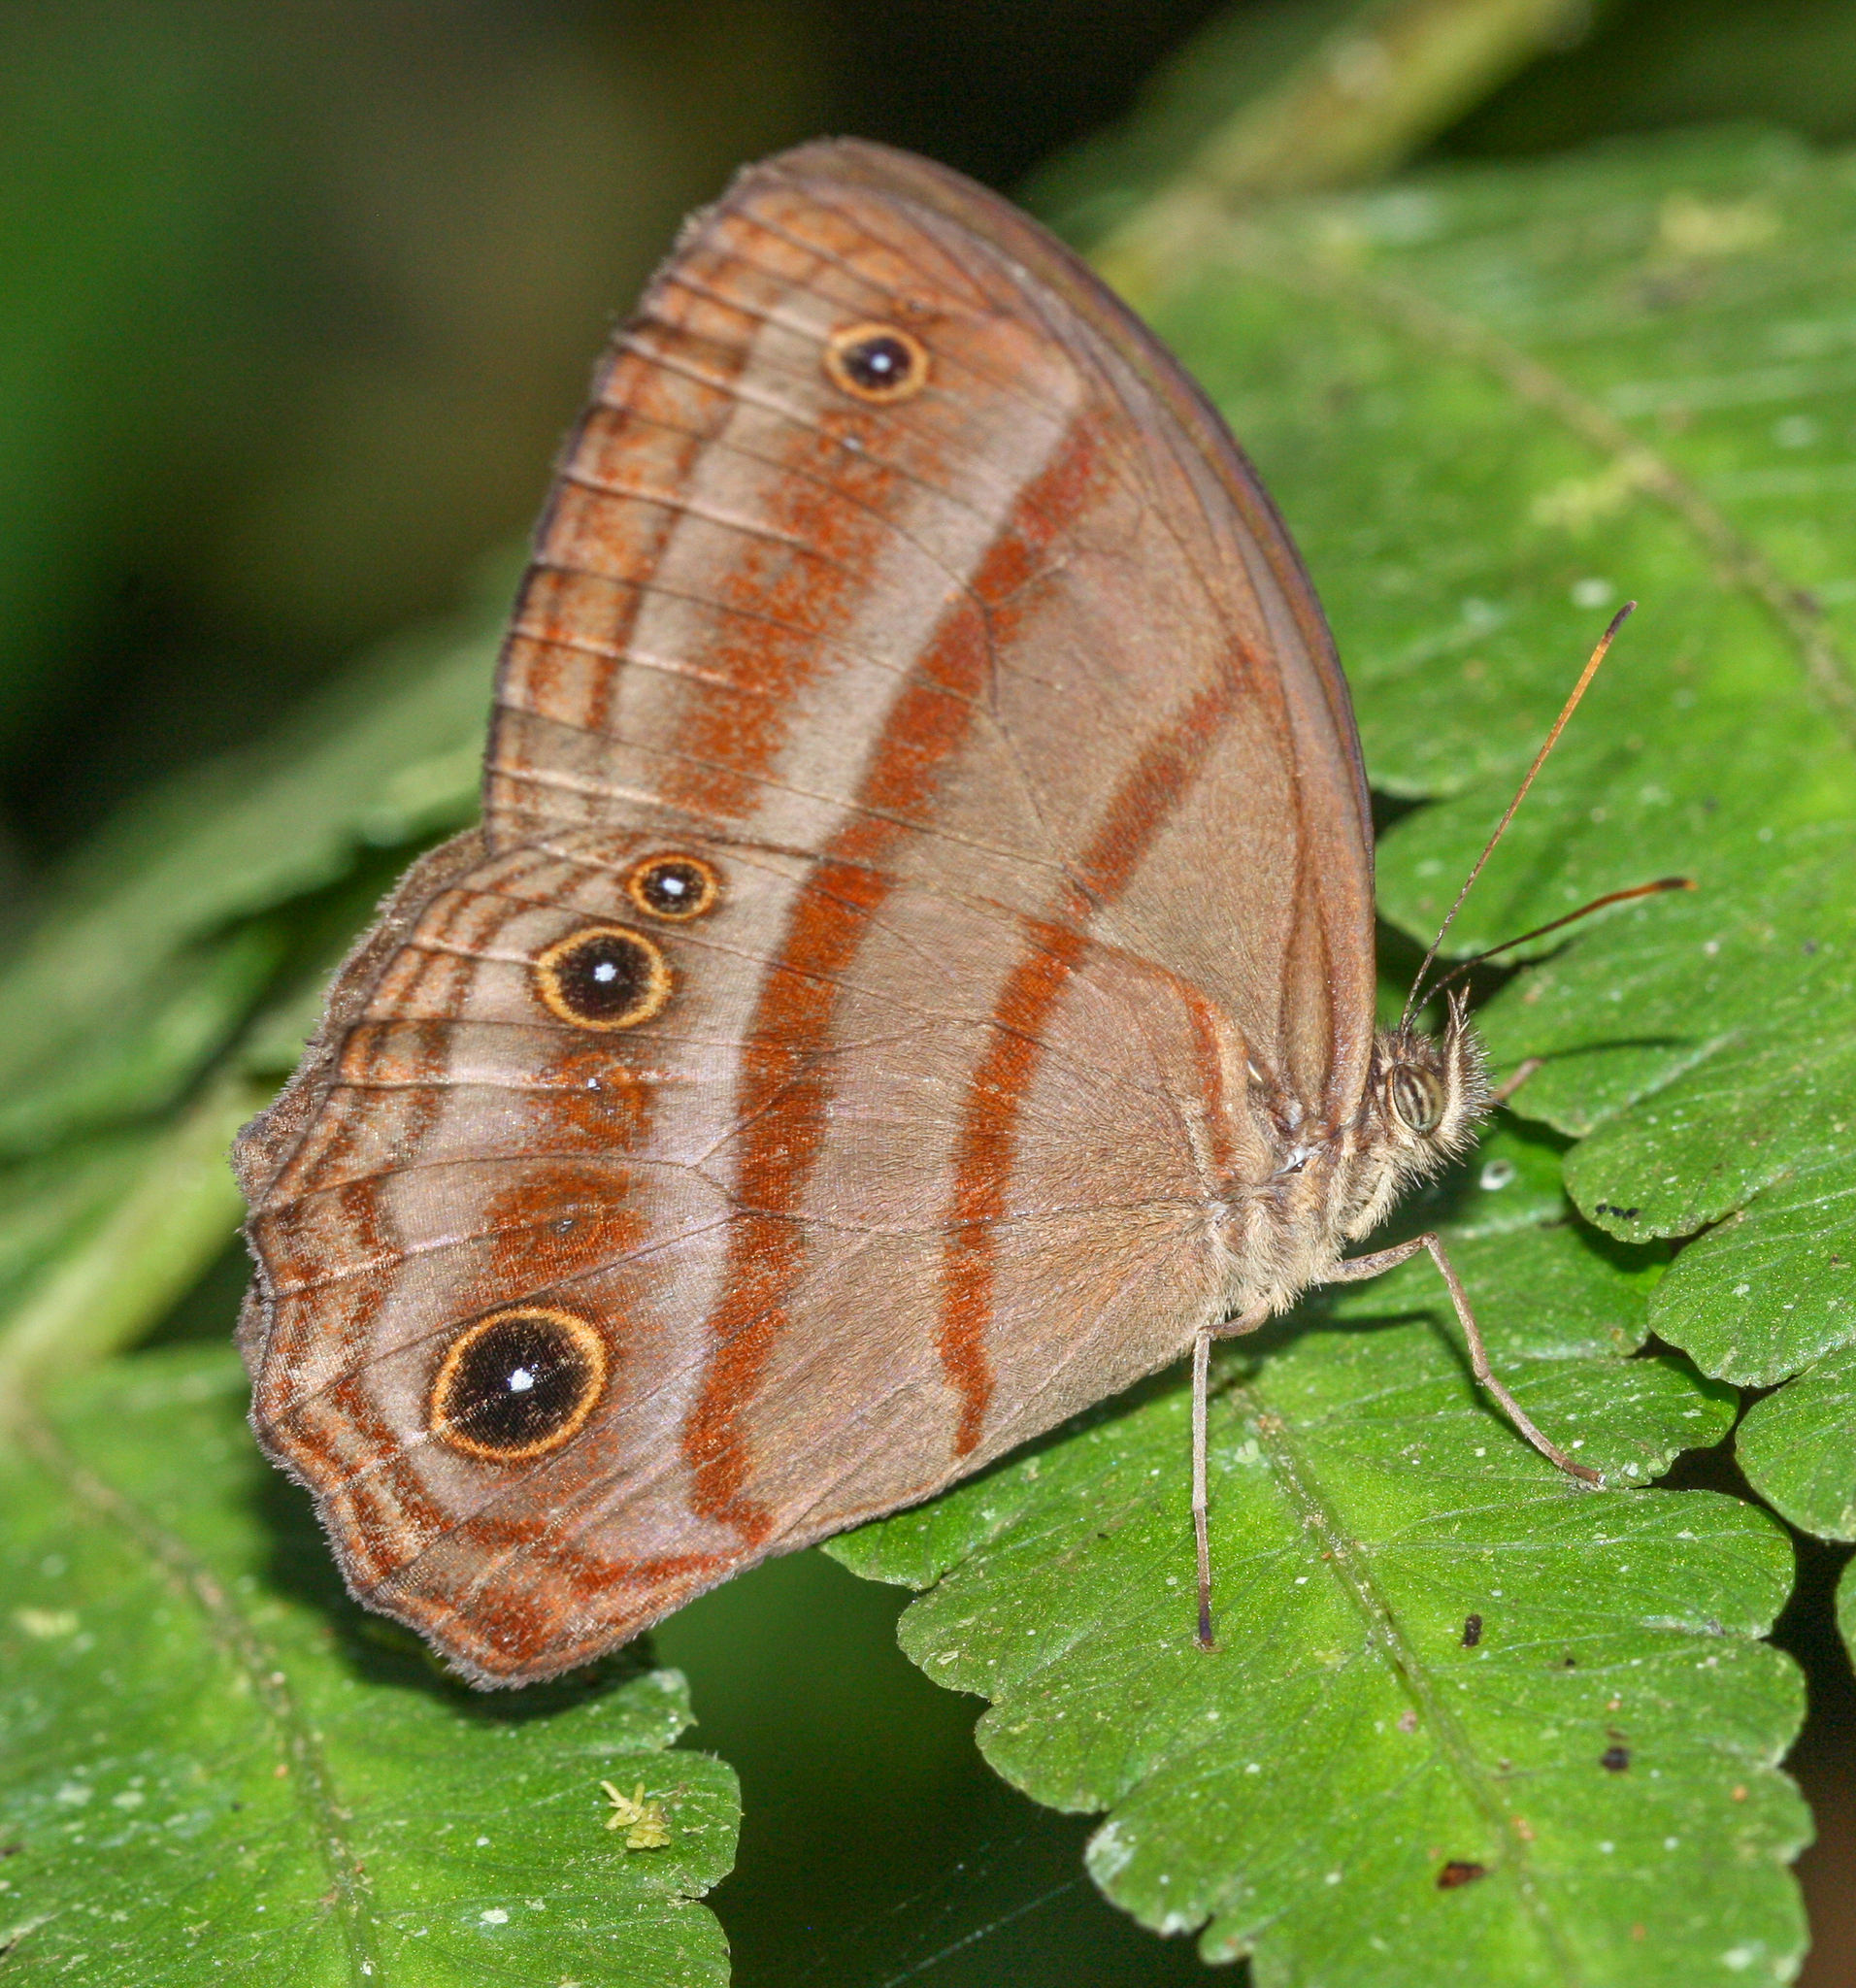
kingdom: Animalia
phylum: Arthropoda
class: Insecta
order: Lepidoptera
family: Nymphalidae
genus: Satyrotaygetis
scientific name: Satyrotaygetis
